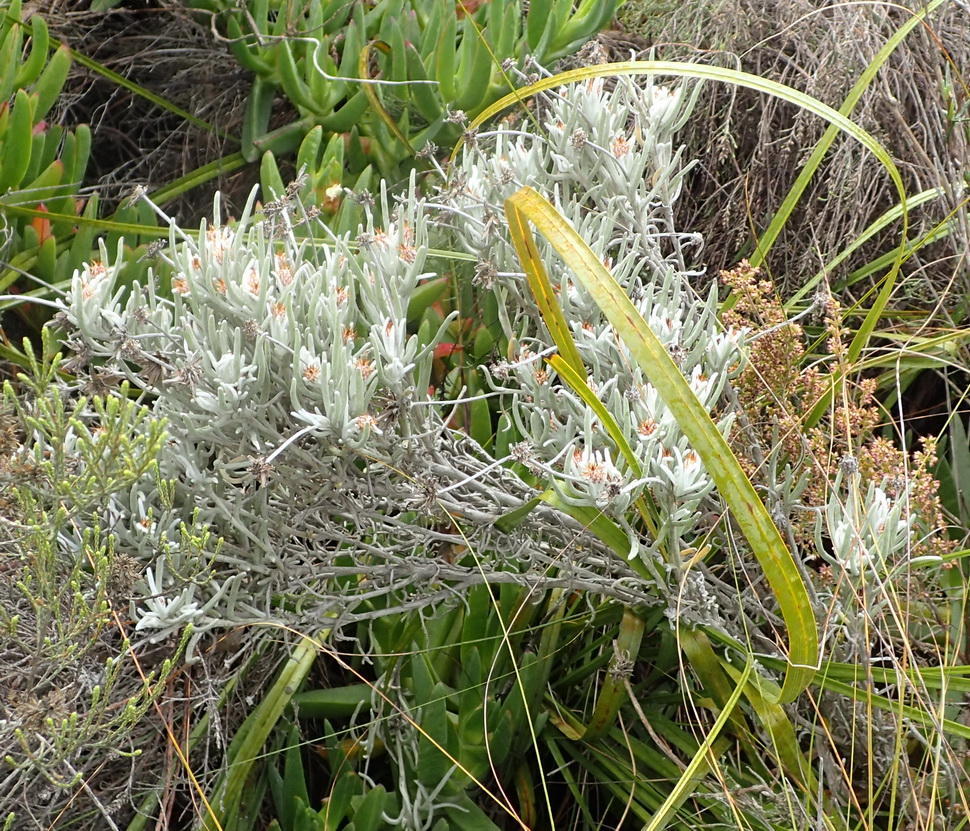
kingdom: Plantae
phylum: Tracheophyta
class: Magnoliopsida
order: Asterales
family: Asteraceae
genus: Syncarpha
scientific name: Syncarpha gnaphaloides
